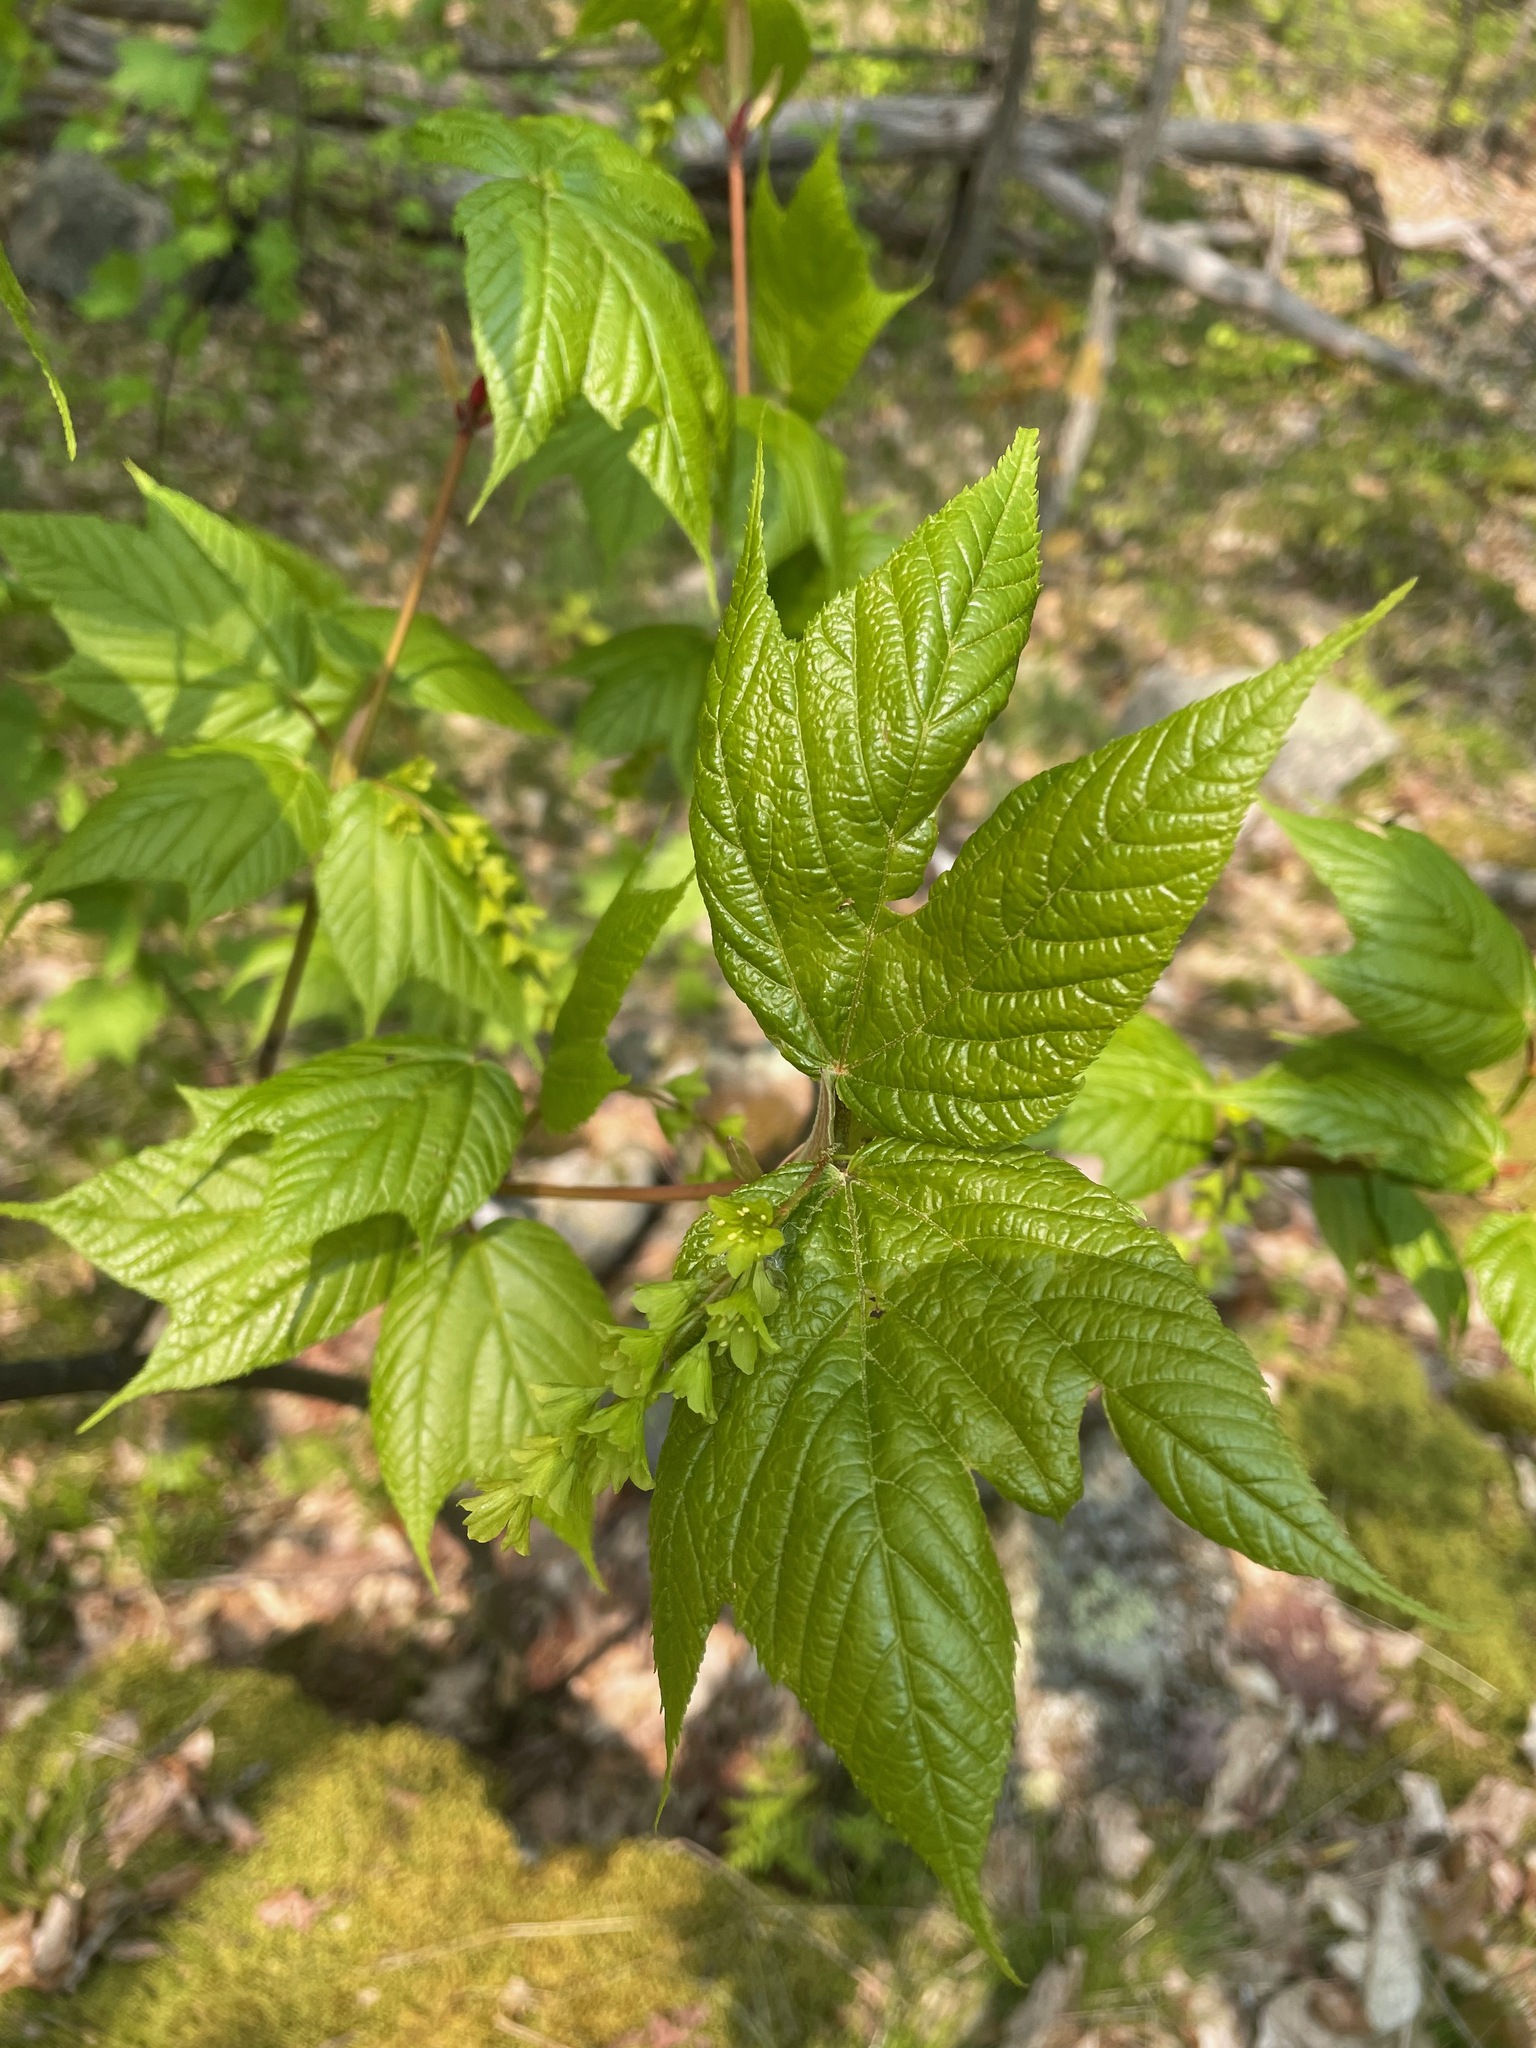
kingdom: Plantae
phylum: Tracheophyta
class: Magnoliopsida
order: Sapindales
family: Sapindaceae
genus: Acer
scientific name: Acer pensylvanicum
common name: Moosewood
